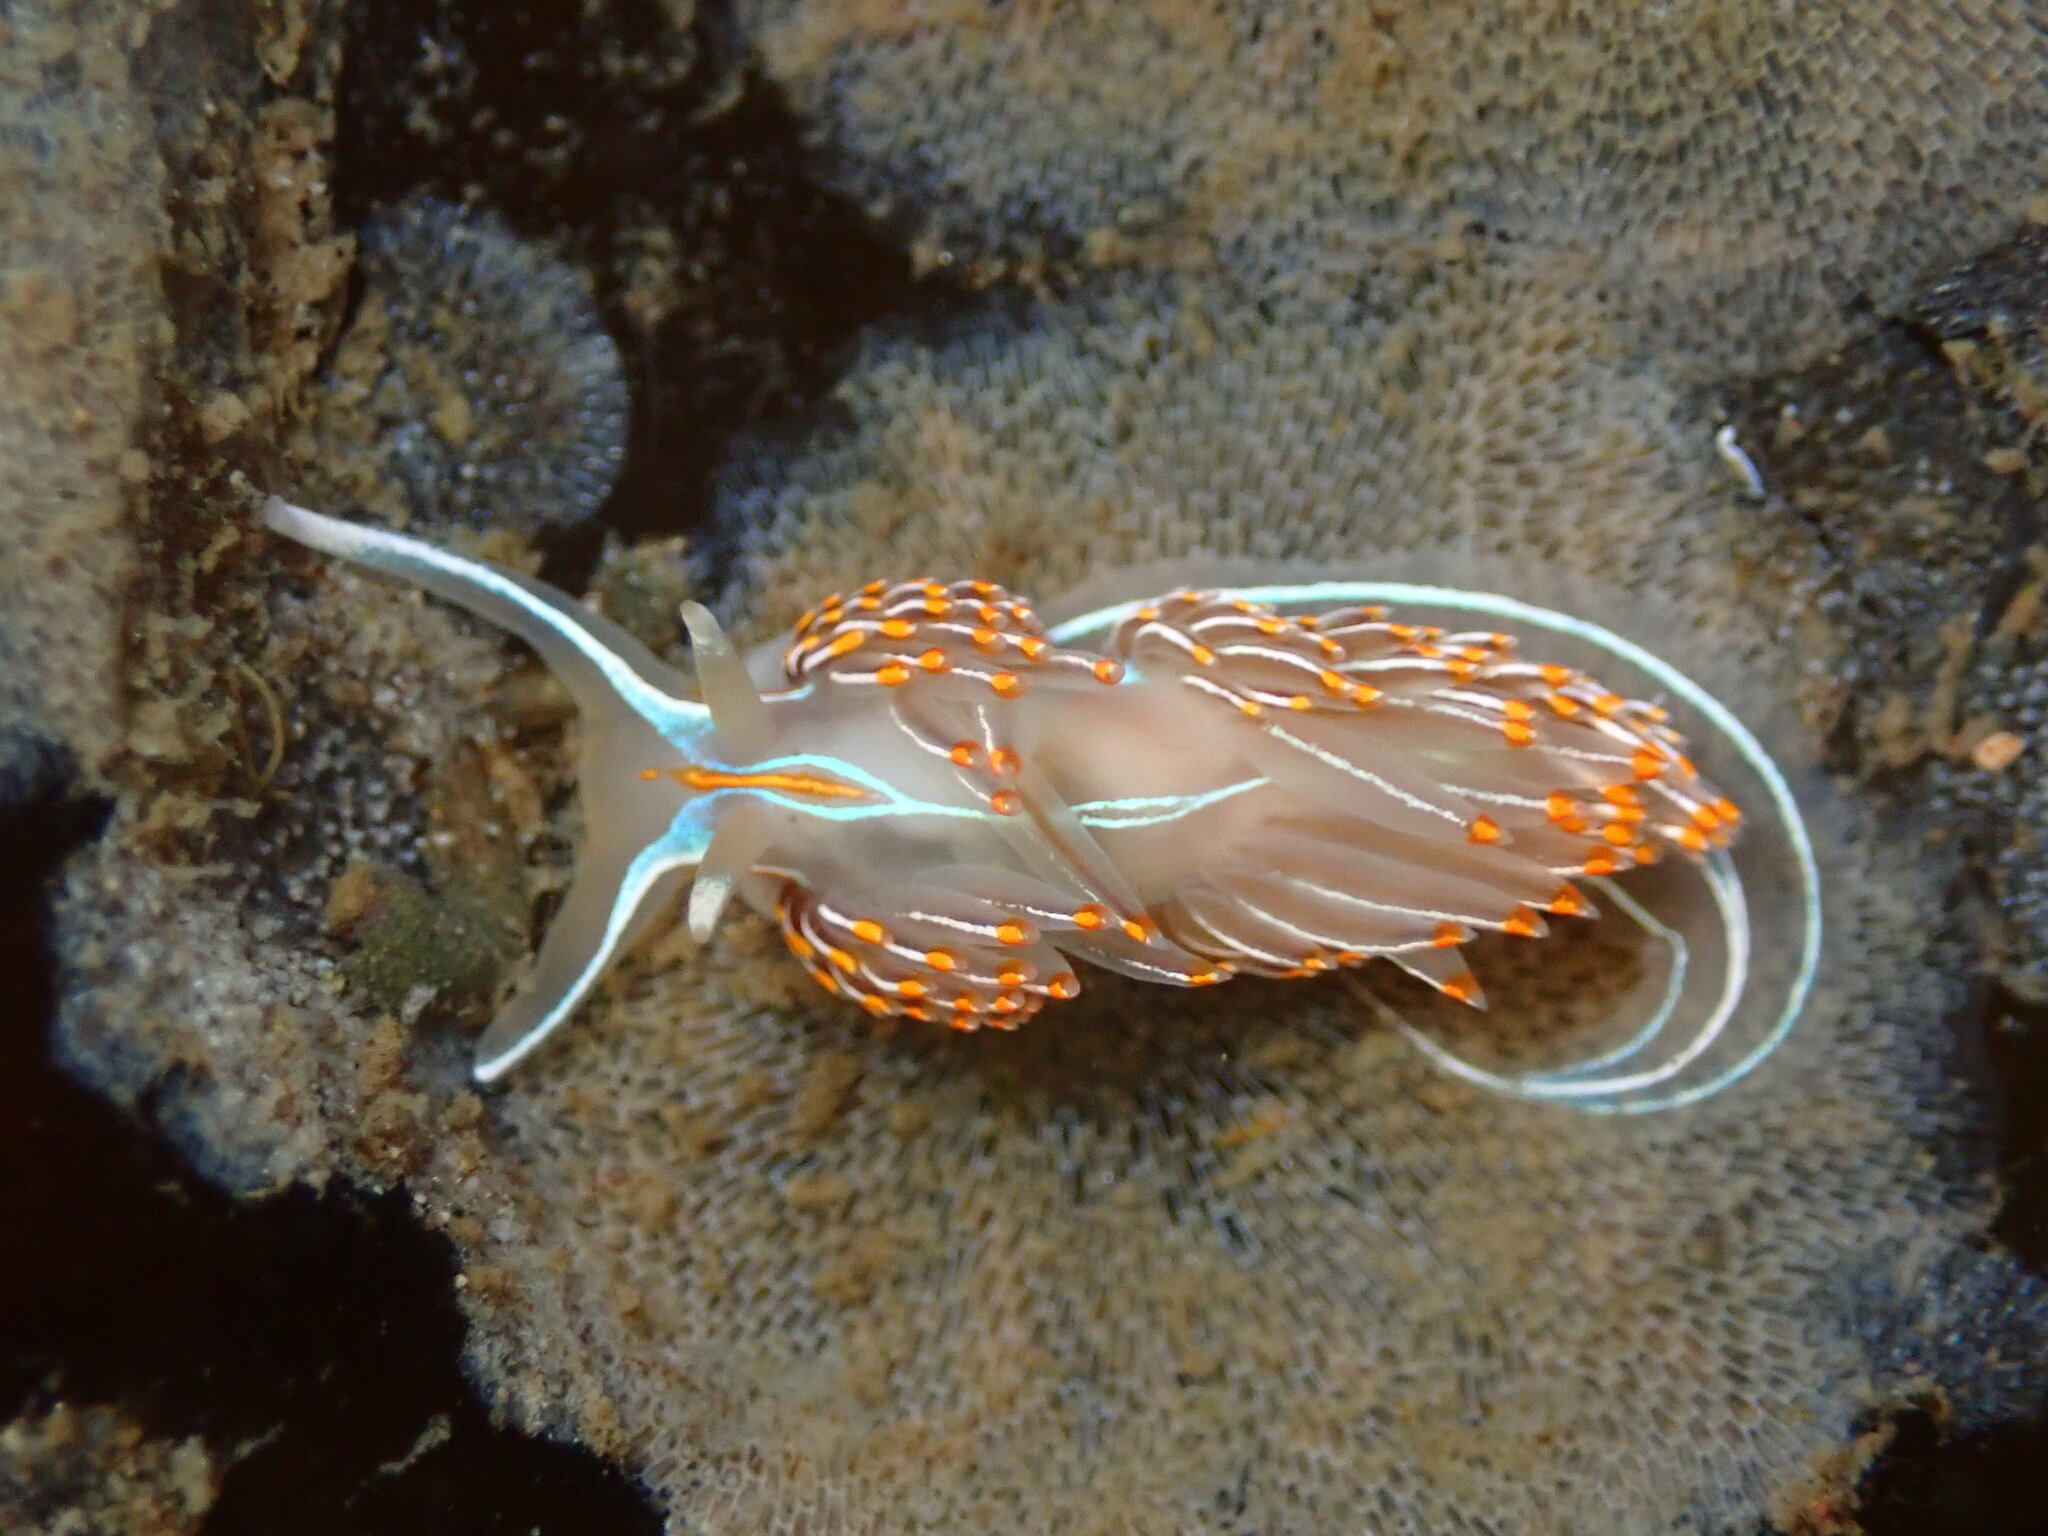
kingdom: Animalia
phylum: Mollusca
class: Gastropoda
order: Nudibranchia
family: Myrrhinidae
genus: Hermissenda
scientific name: Hermissenda crassicornis
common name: Hermissenda
